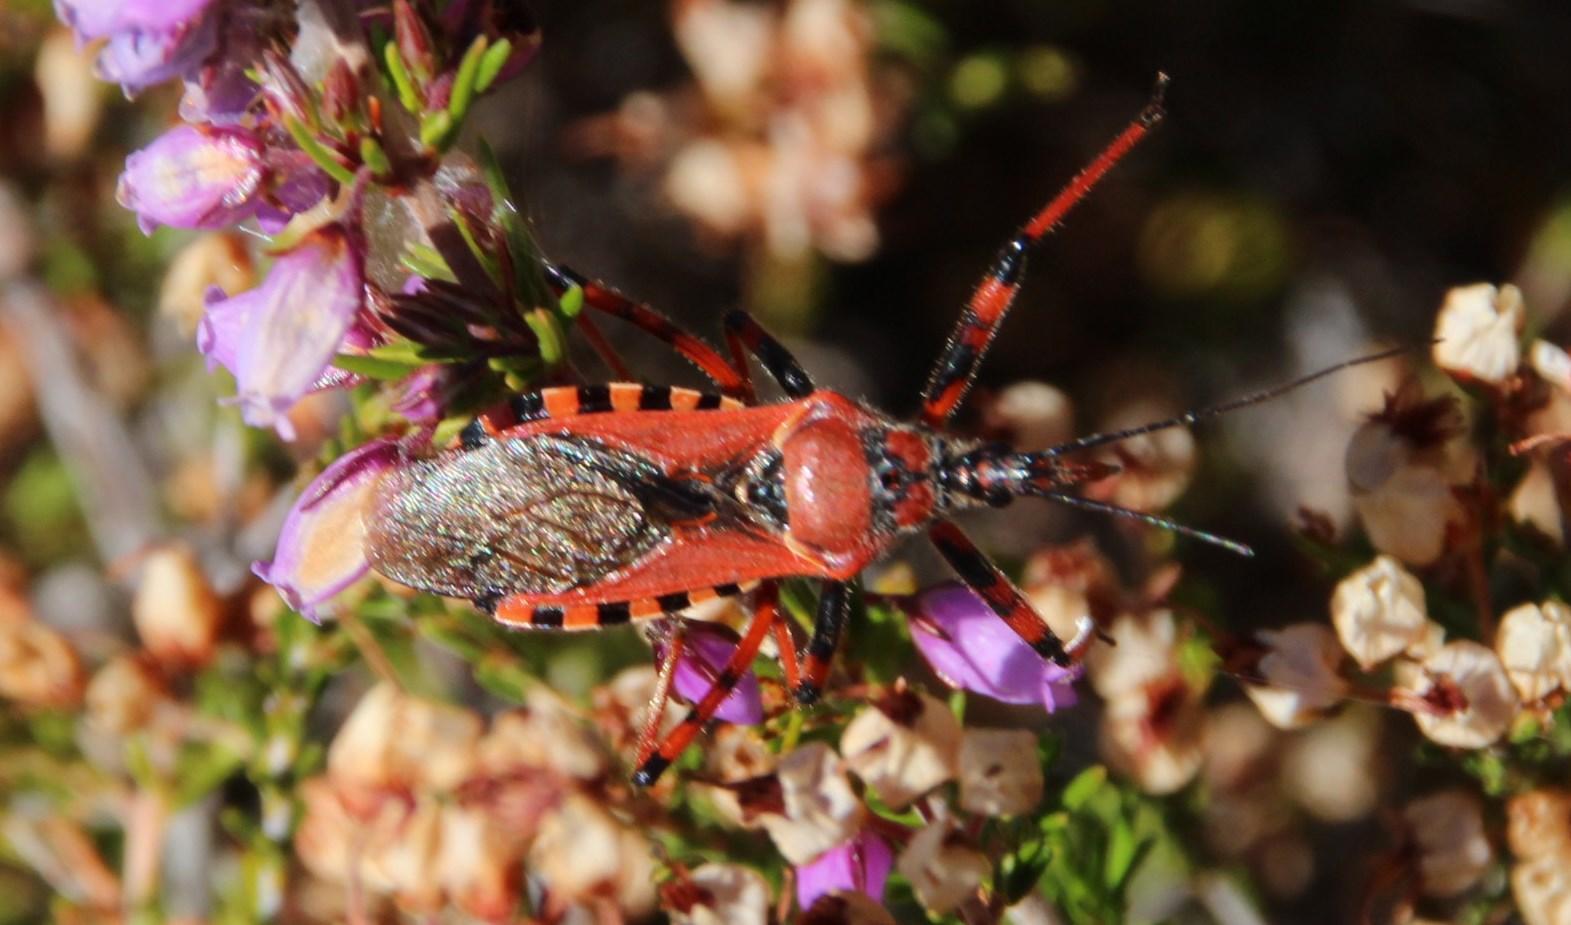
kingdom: Animalia
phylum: Arthropoda
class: Insecta
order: Hemiptera
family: Reduviidae
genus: Rhynocoris
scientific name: Rhynocoris iracundus
